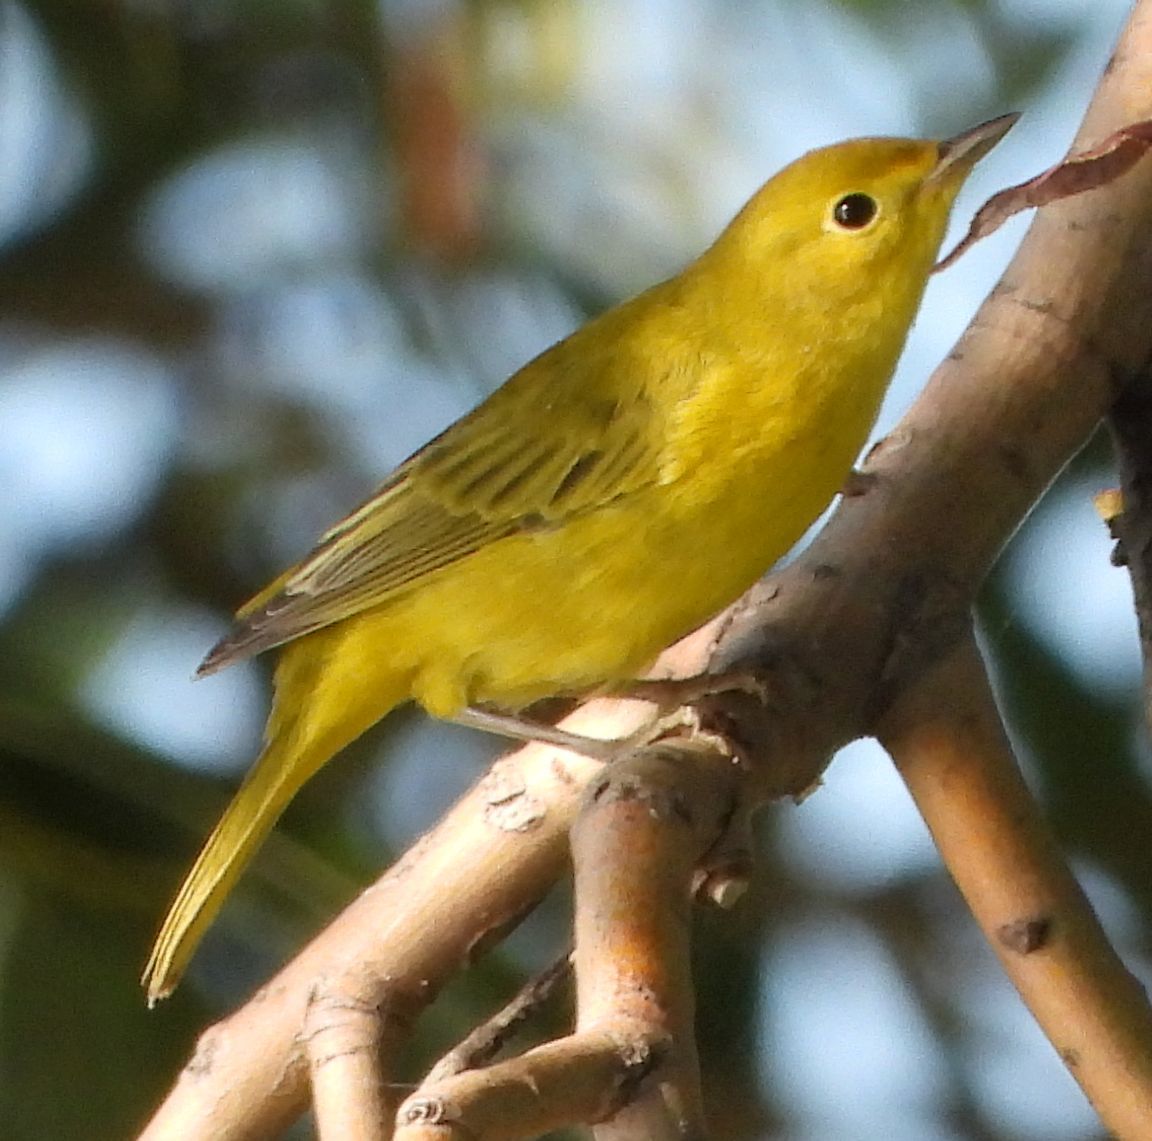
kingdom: Animalia
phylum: Chordata
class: Aves
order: Passeriformes
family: Parulidae
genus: Setophaga
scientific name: Setophaga petechia
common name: Yellow warbler
